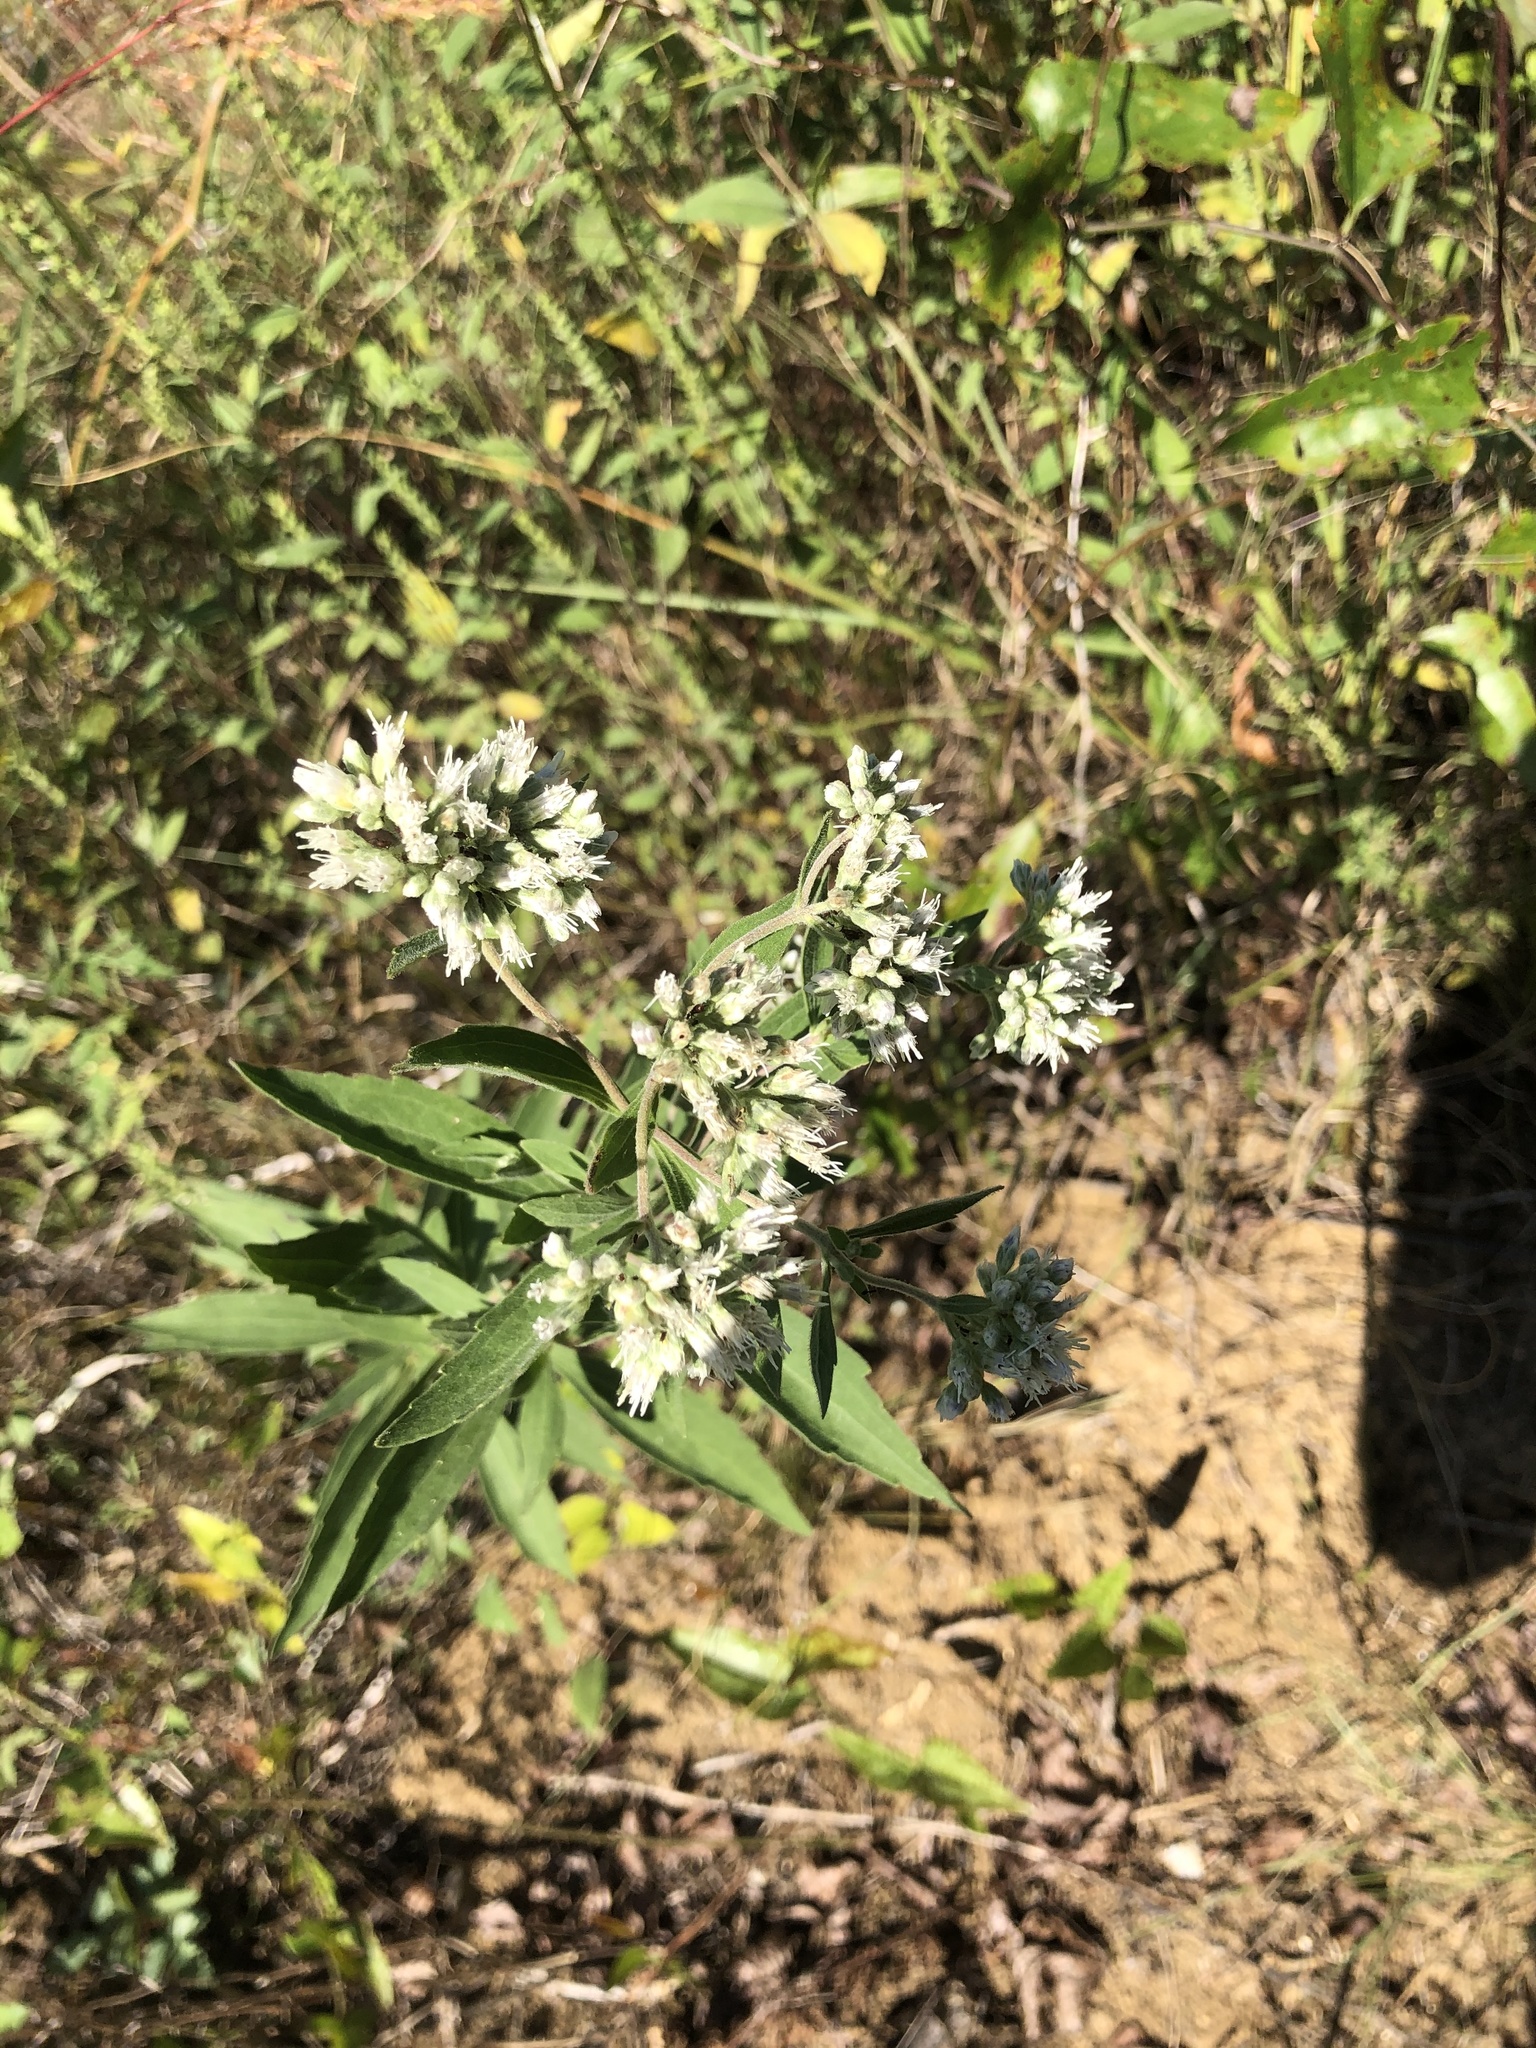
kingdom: Plantae
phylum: Tracheophyta
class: Magnoliopsida
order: Asterales
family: Asteraceae
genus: Eupatorium
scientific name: Eupatorium altissimum
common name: Tall thoroughwort
